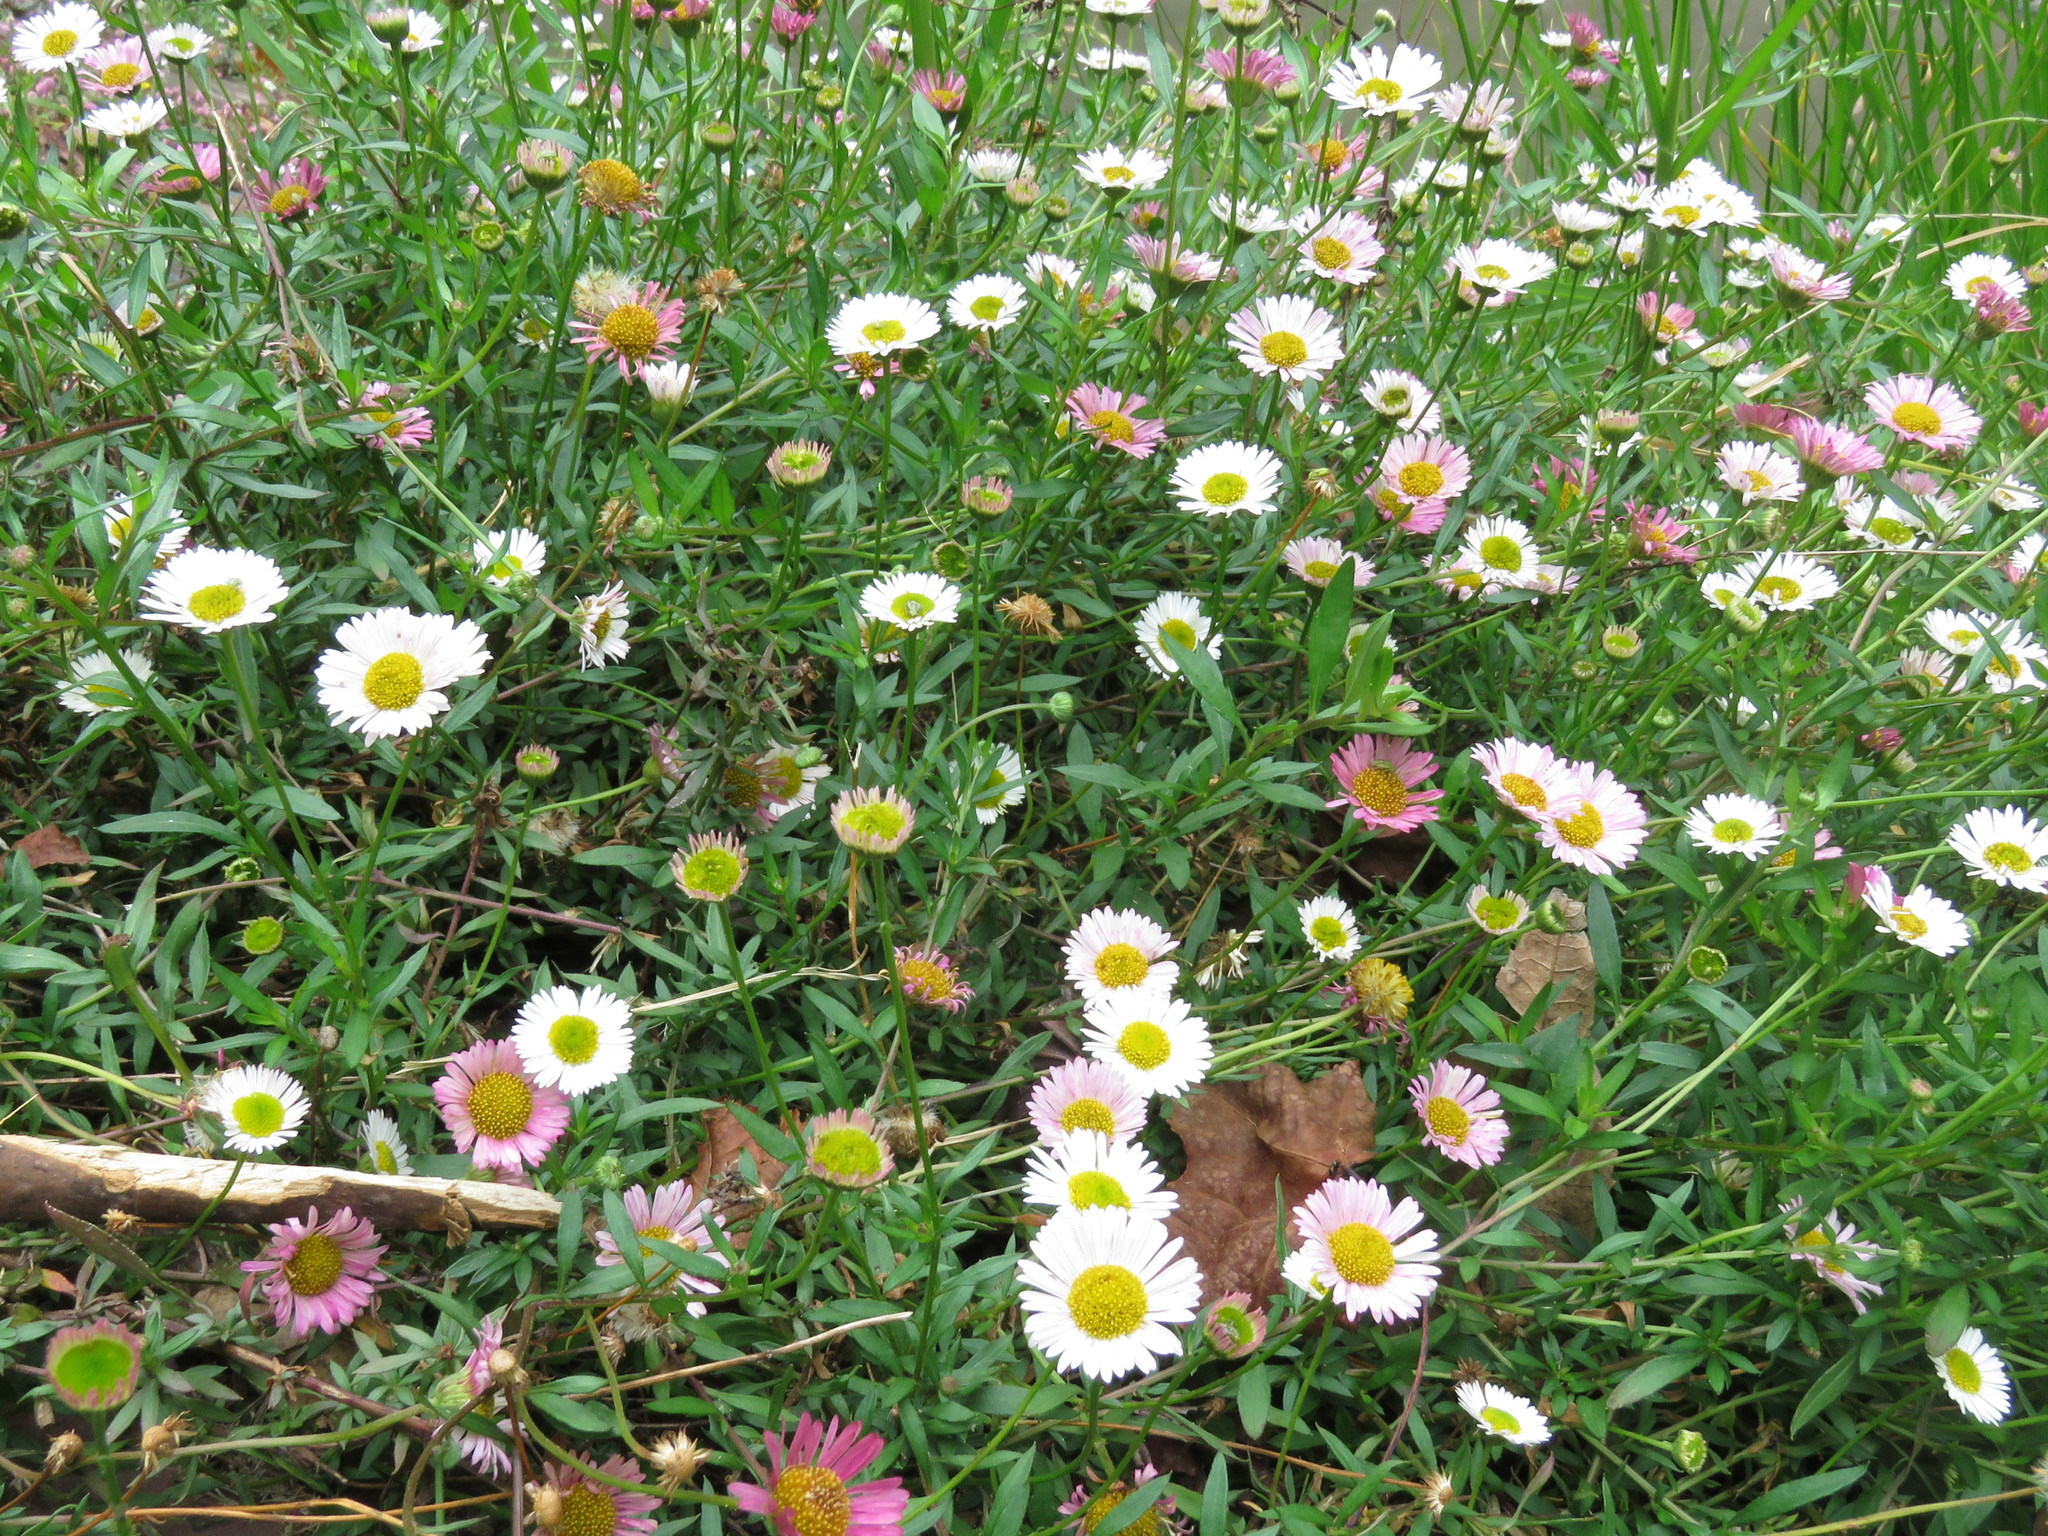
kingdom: Plantae
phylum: Tracheophyta
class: Magnoliopsida
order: Asterales
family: Asteraceae
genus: Erigeron
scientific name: Erigeron karvinskianus
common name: Mexican fleabane
